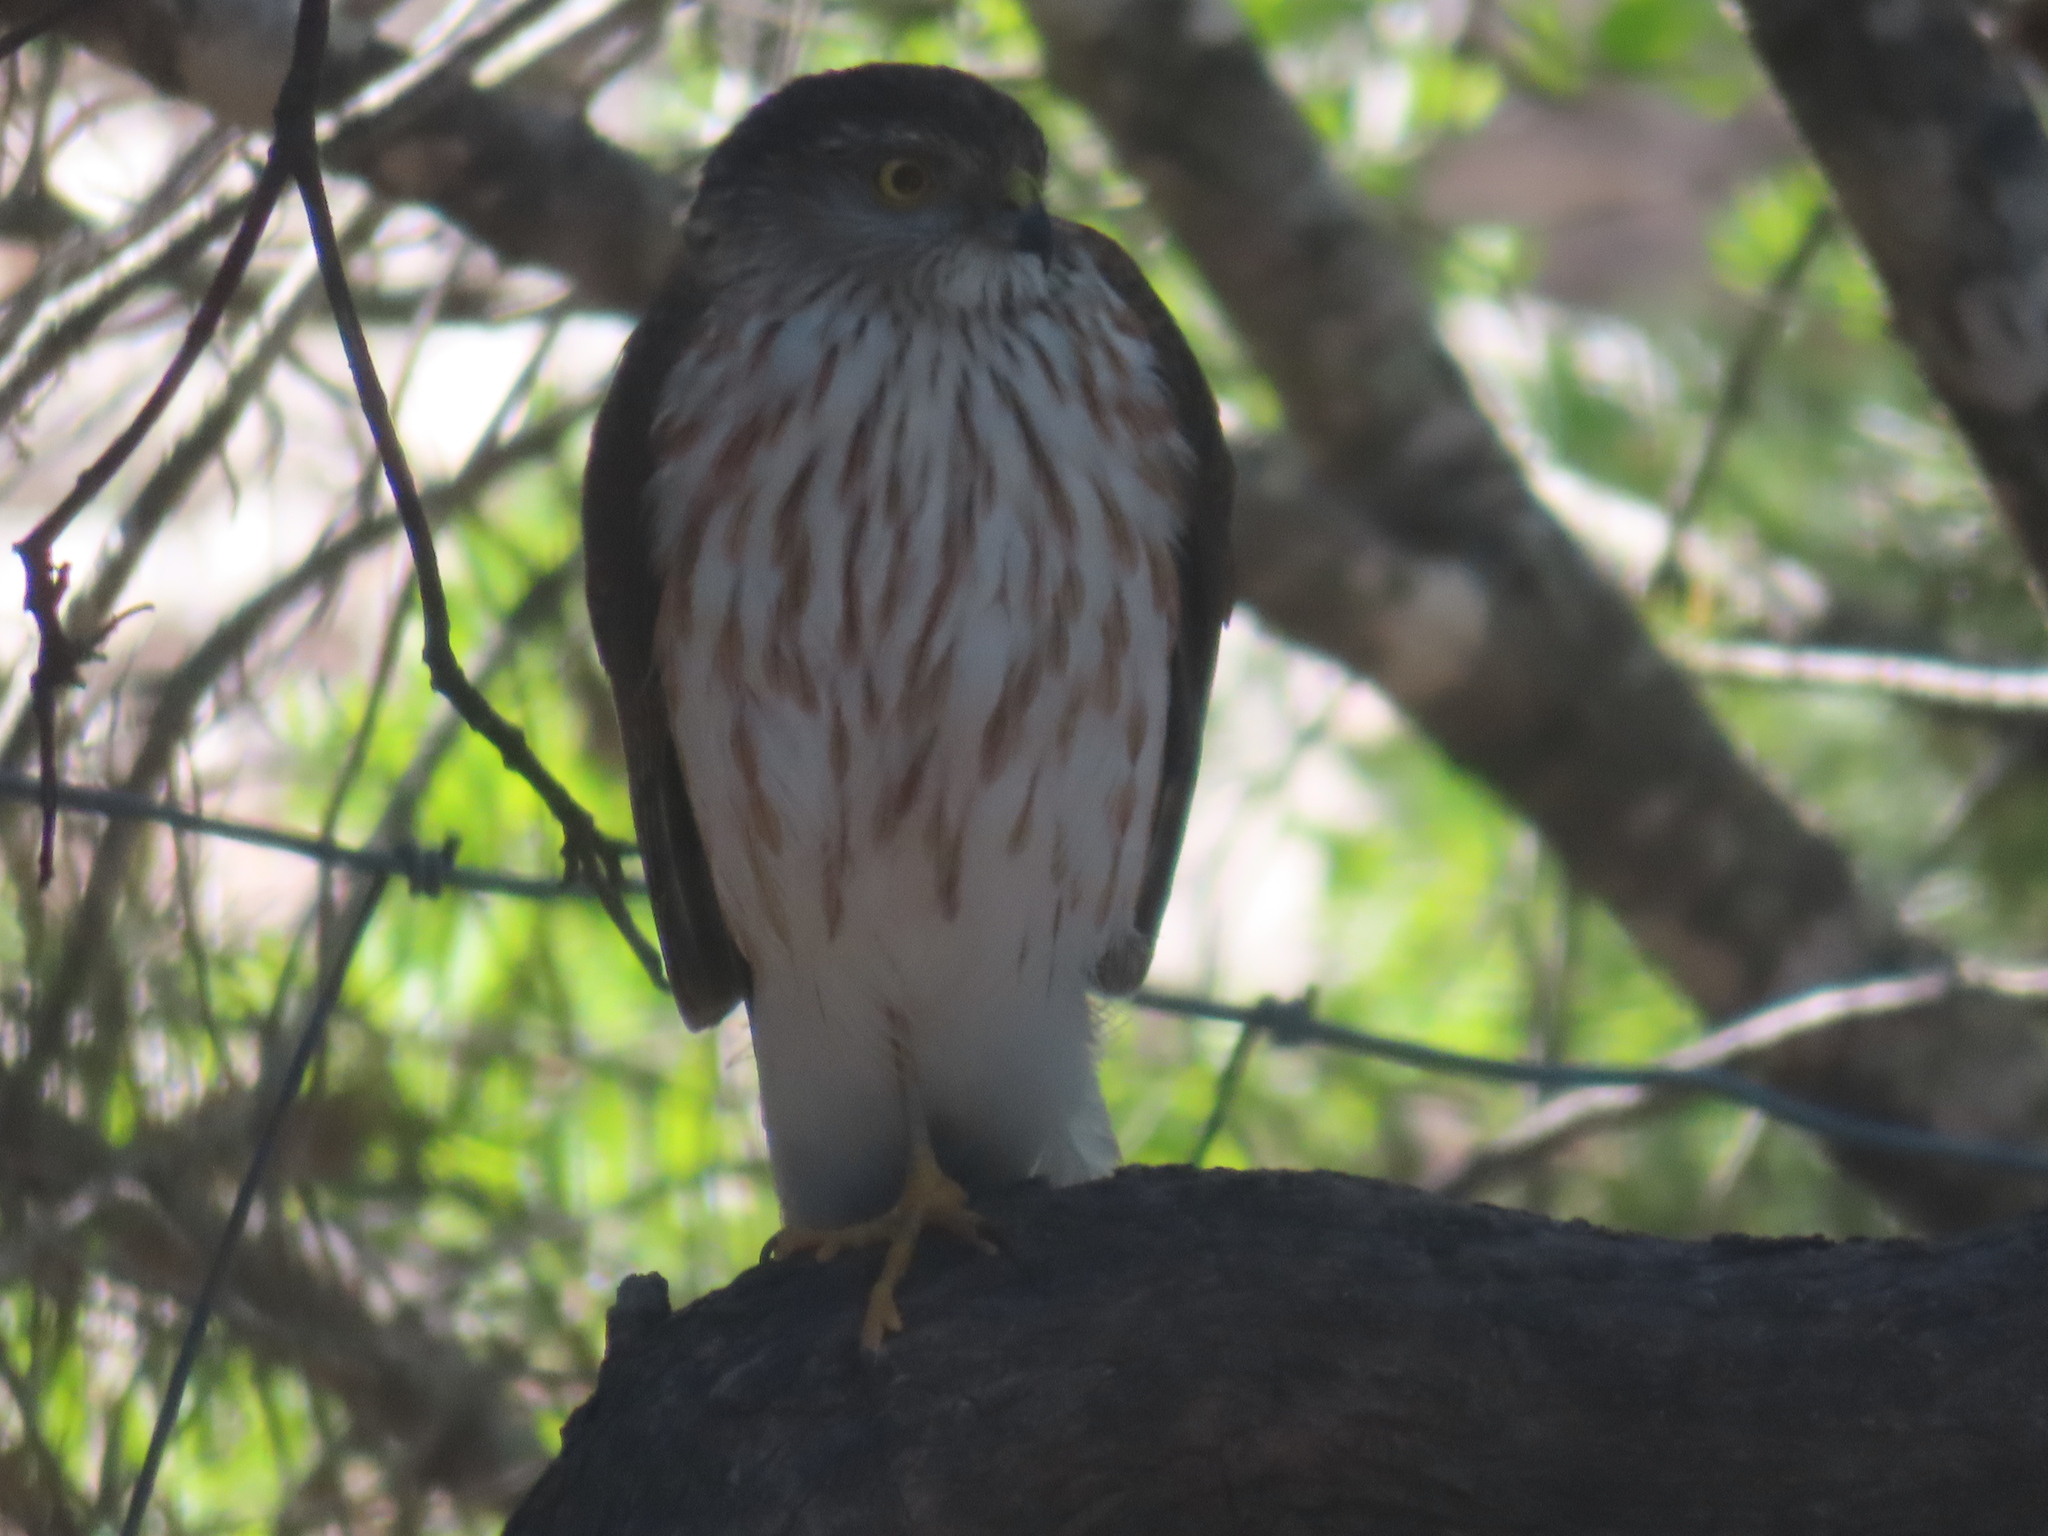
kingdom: Animalia
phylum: Chordata
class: Aves
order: Accipitriformes
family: Accipitridae
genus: Accipiter
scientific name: Accipiter striatus
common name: Sharp-shinned hawk
